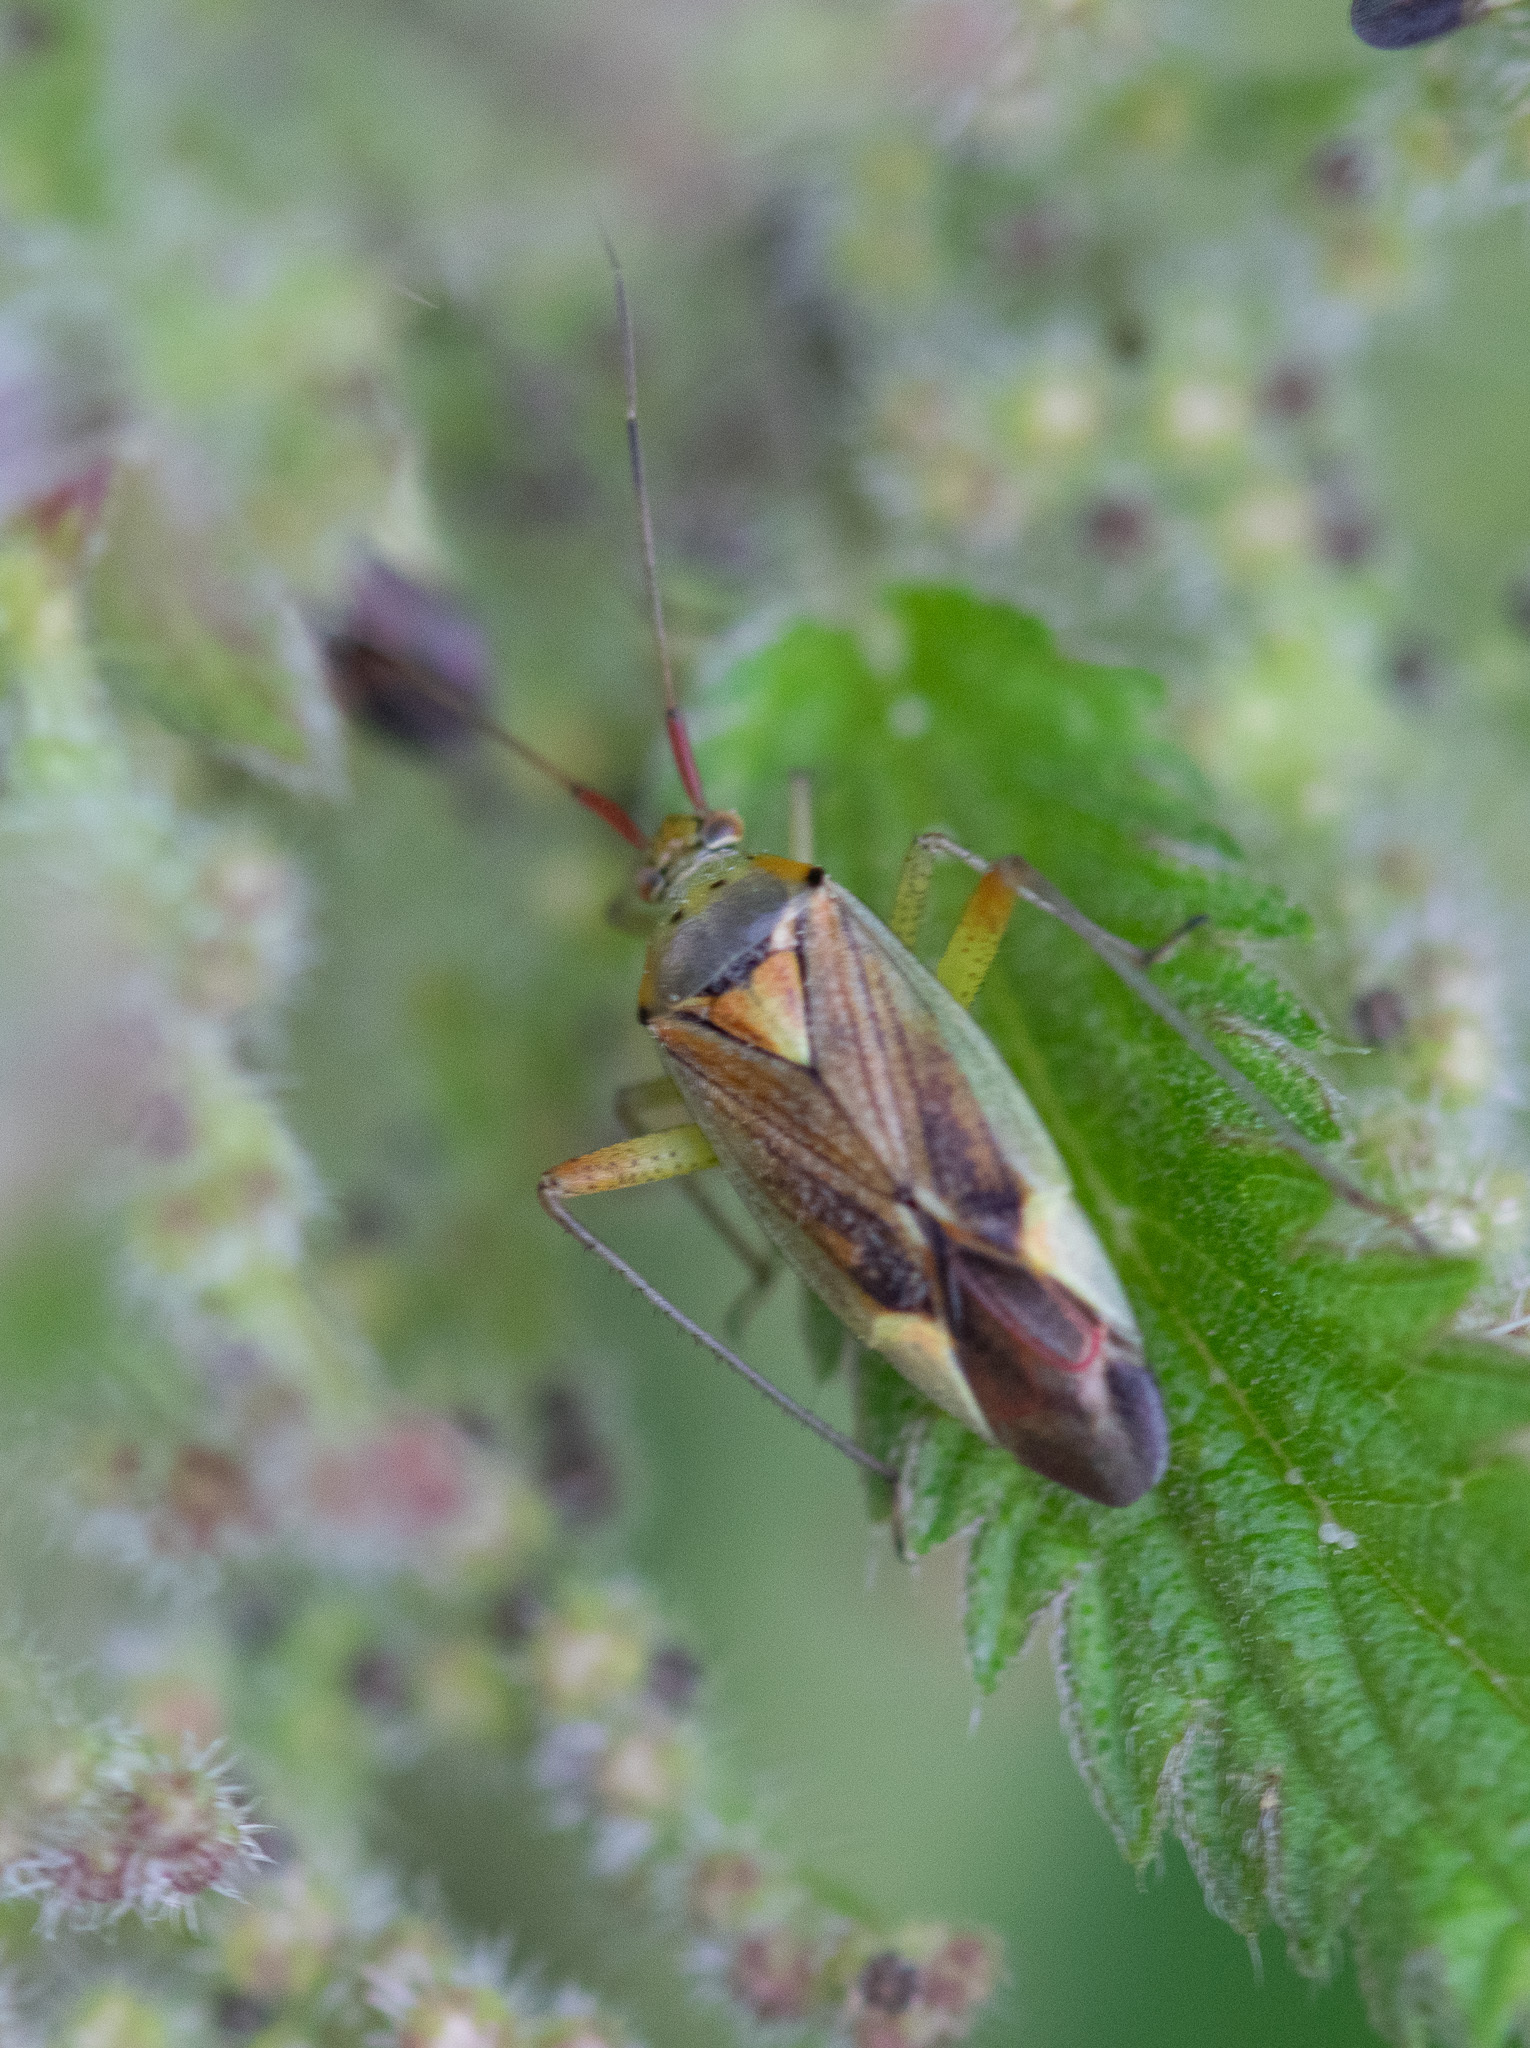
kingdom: Animalia
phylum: Arthropoda
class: Insecta
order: Hemiptera
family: Miridae
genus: Closterotomus
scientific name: Closterotomus trivialis
